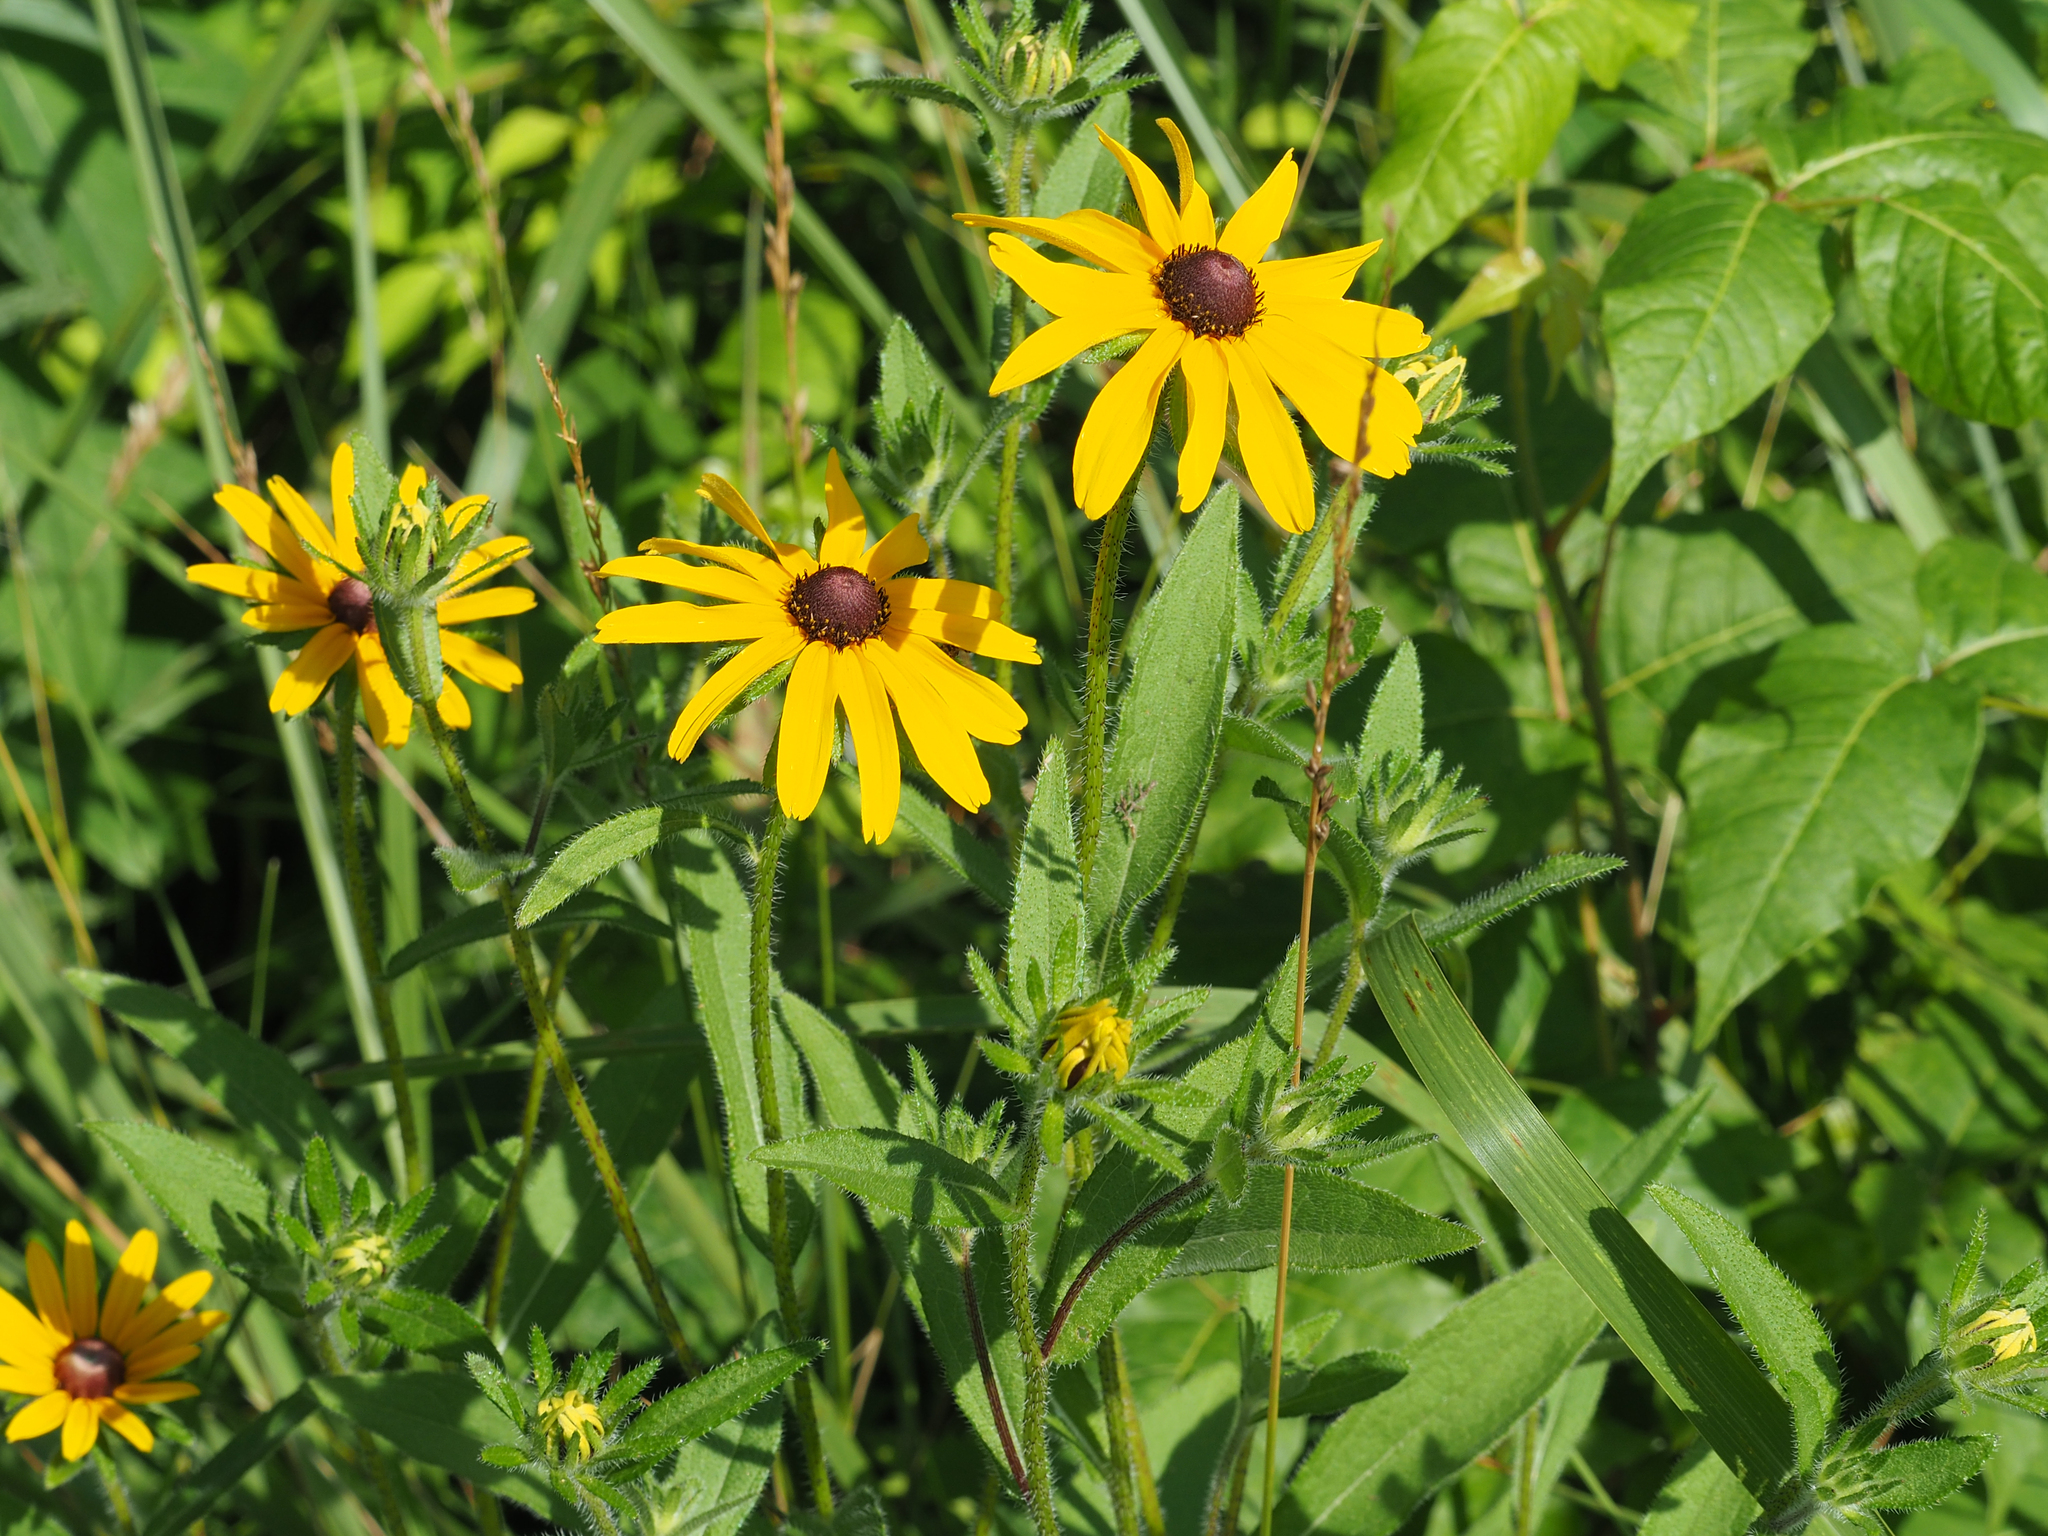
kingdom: Plantae
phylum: Tracheophyta
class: Magnoliopsida
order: Asterales
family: Asteraceae
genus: Rudbeckia
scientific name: Rudbeckia hirta
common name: Black-eyed-susan
